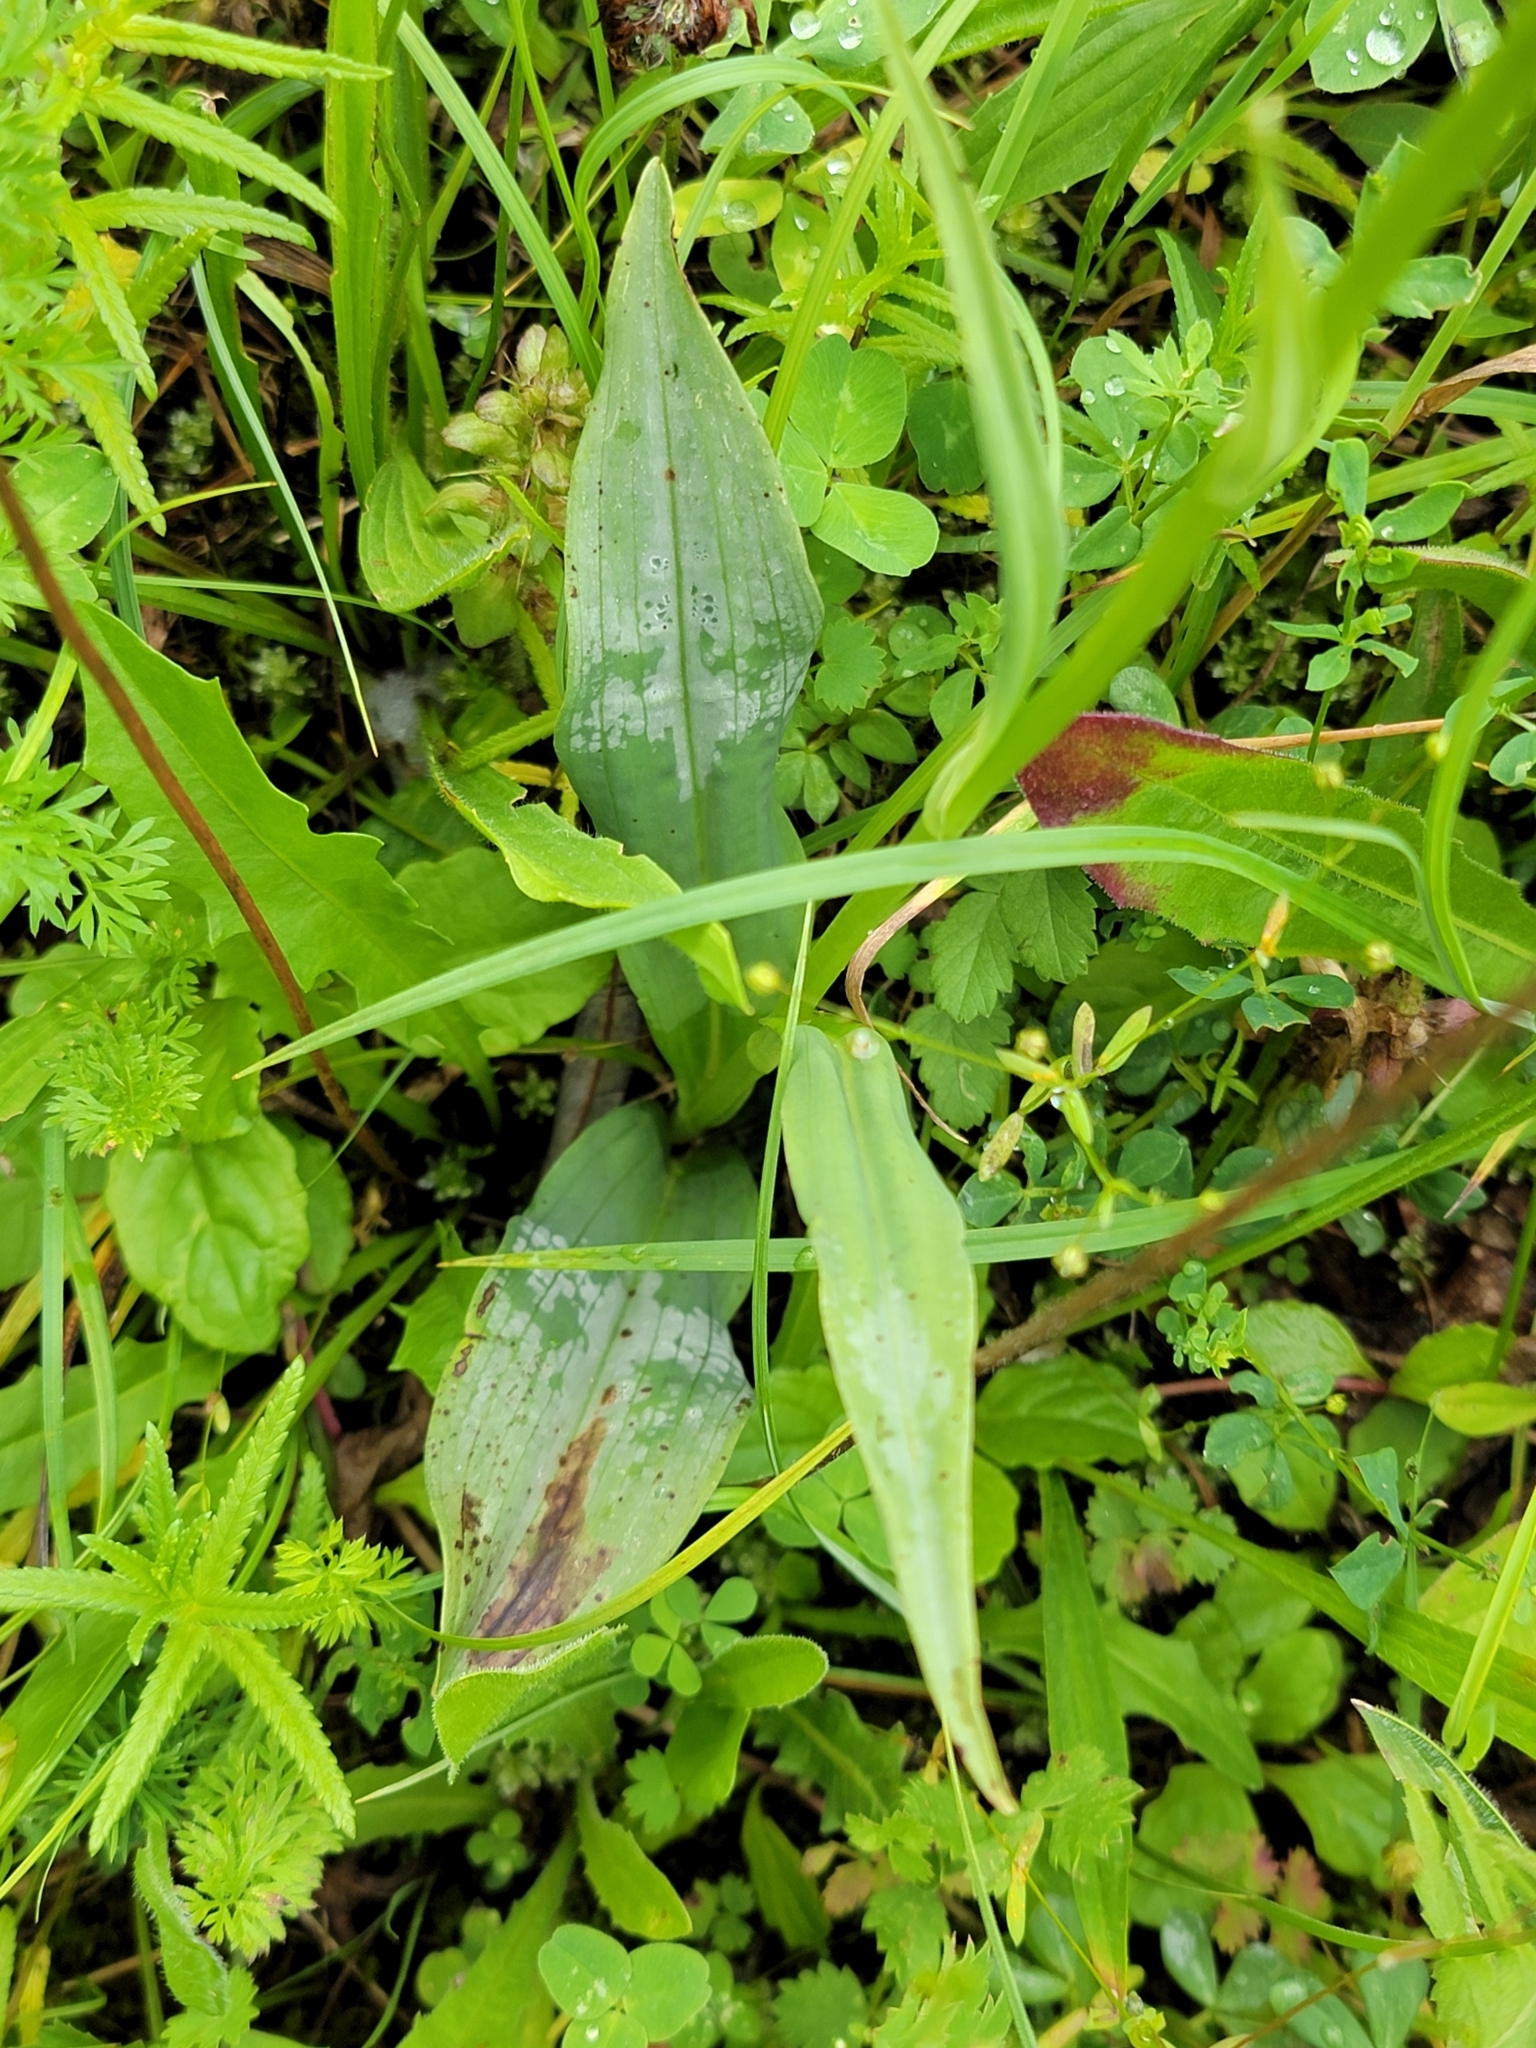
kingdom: Plantae
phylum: Tracheophyta
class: Liliopsida
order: Asparagales
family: Orchidaceae
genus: Dactylorhiza
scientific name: Dactylorhiza maculata
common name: Heath spotted-orchid
